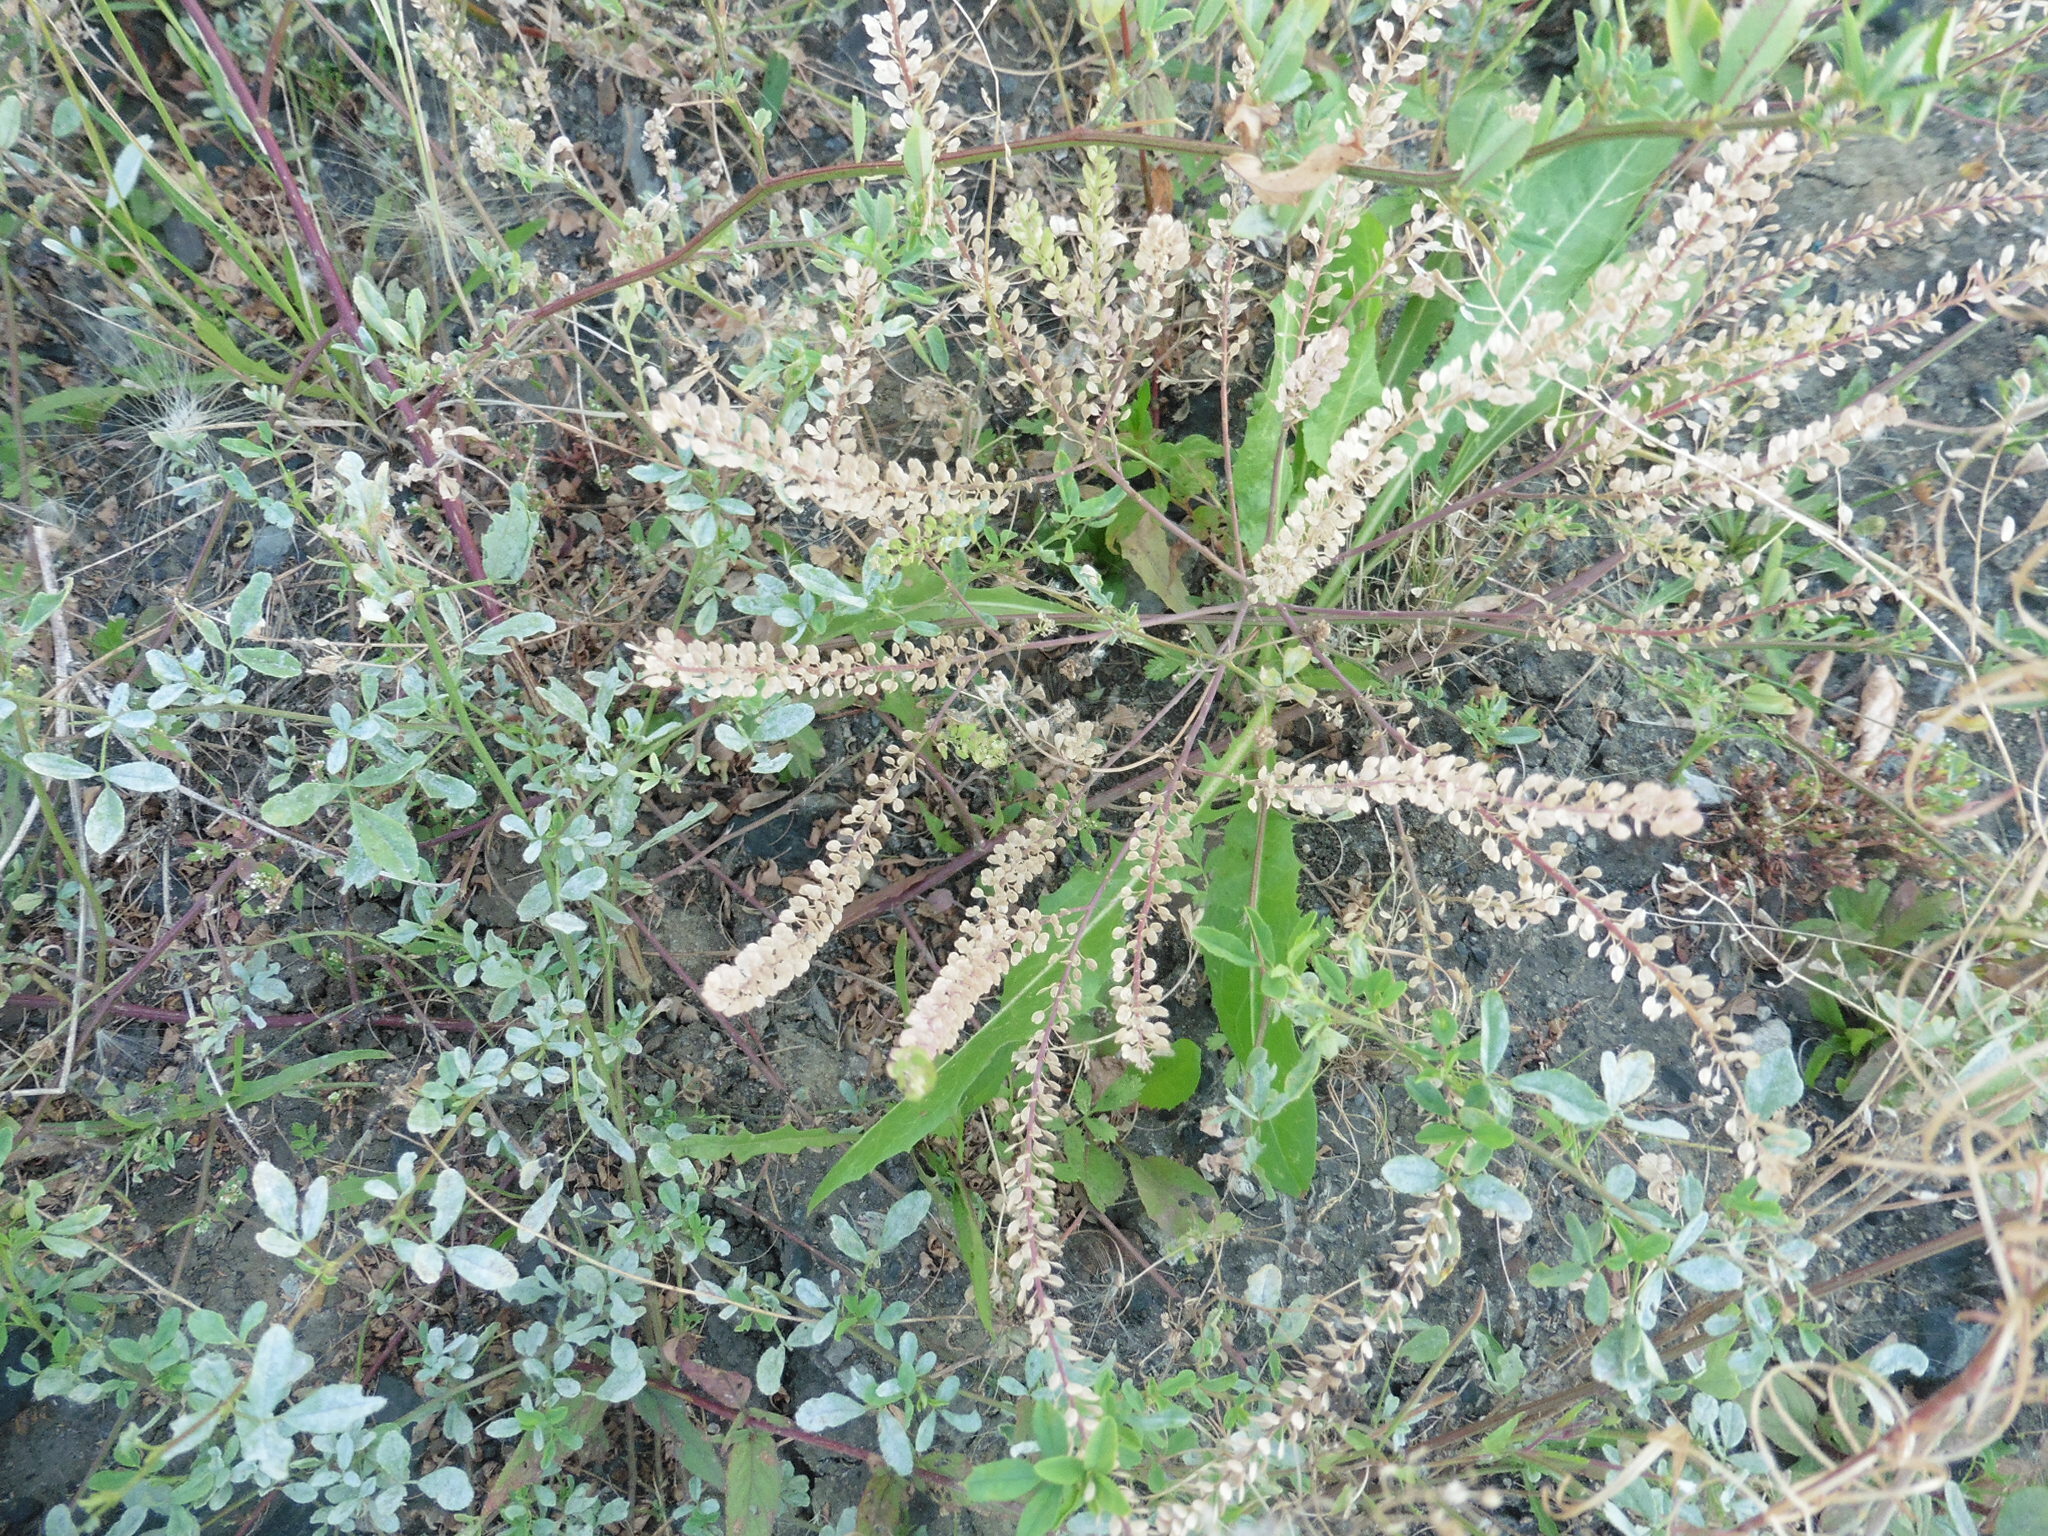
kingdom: Plantae
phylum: Tracheophyta
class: Magnoliopsida
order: Brassicales
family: Brassicaceae
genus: Lepidium
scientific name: Lepidium densiflorum
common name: Miner's pepperwort
